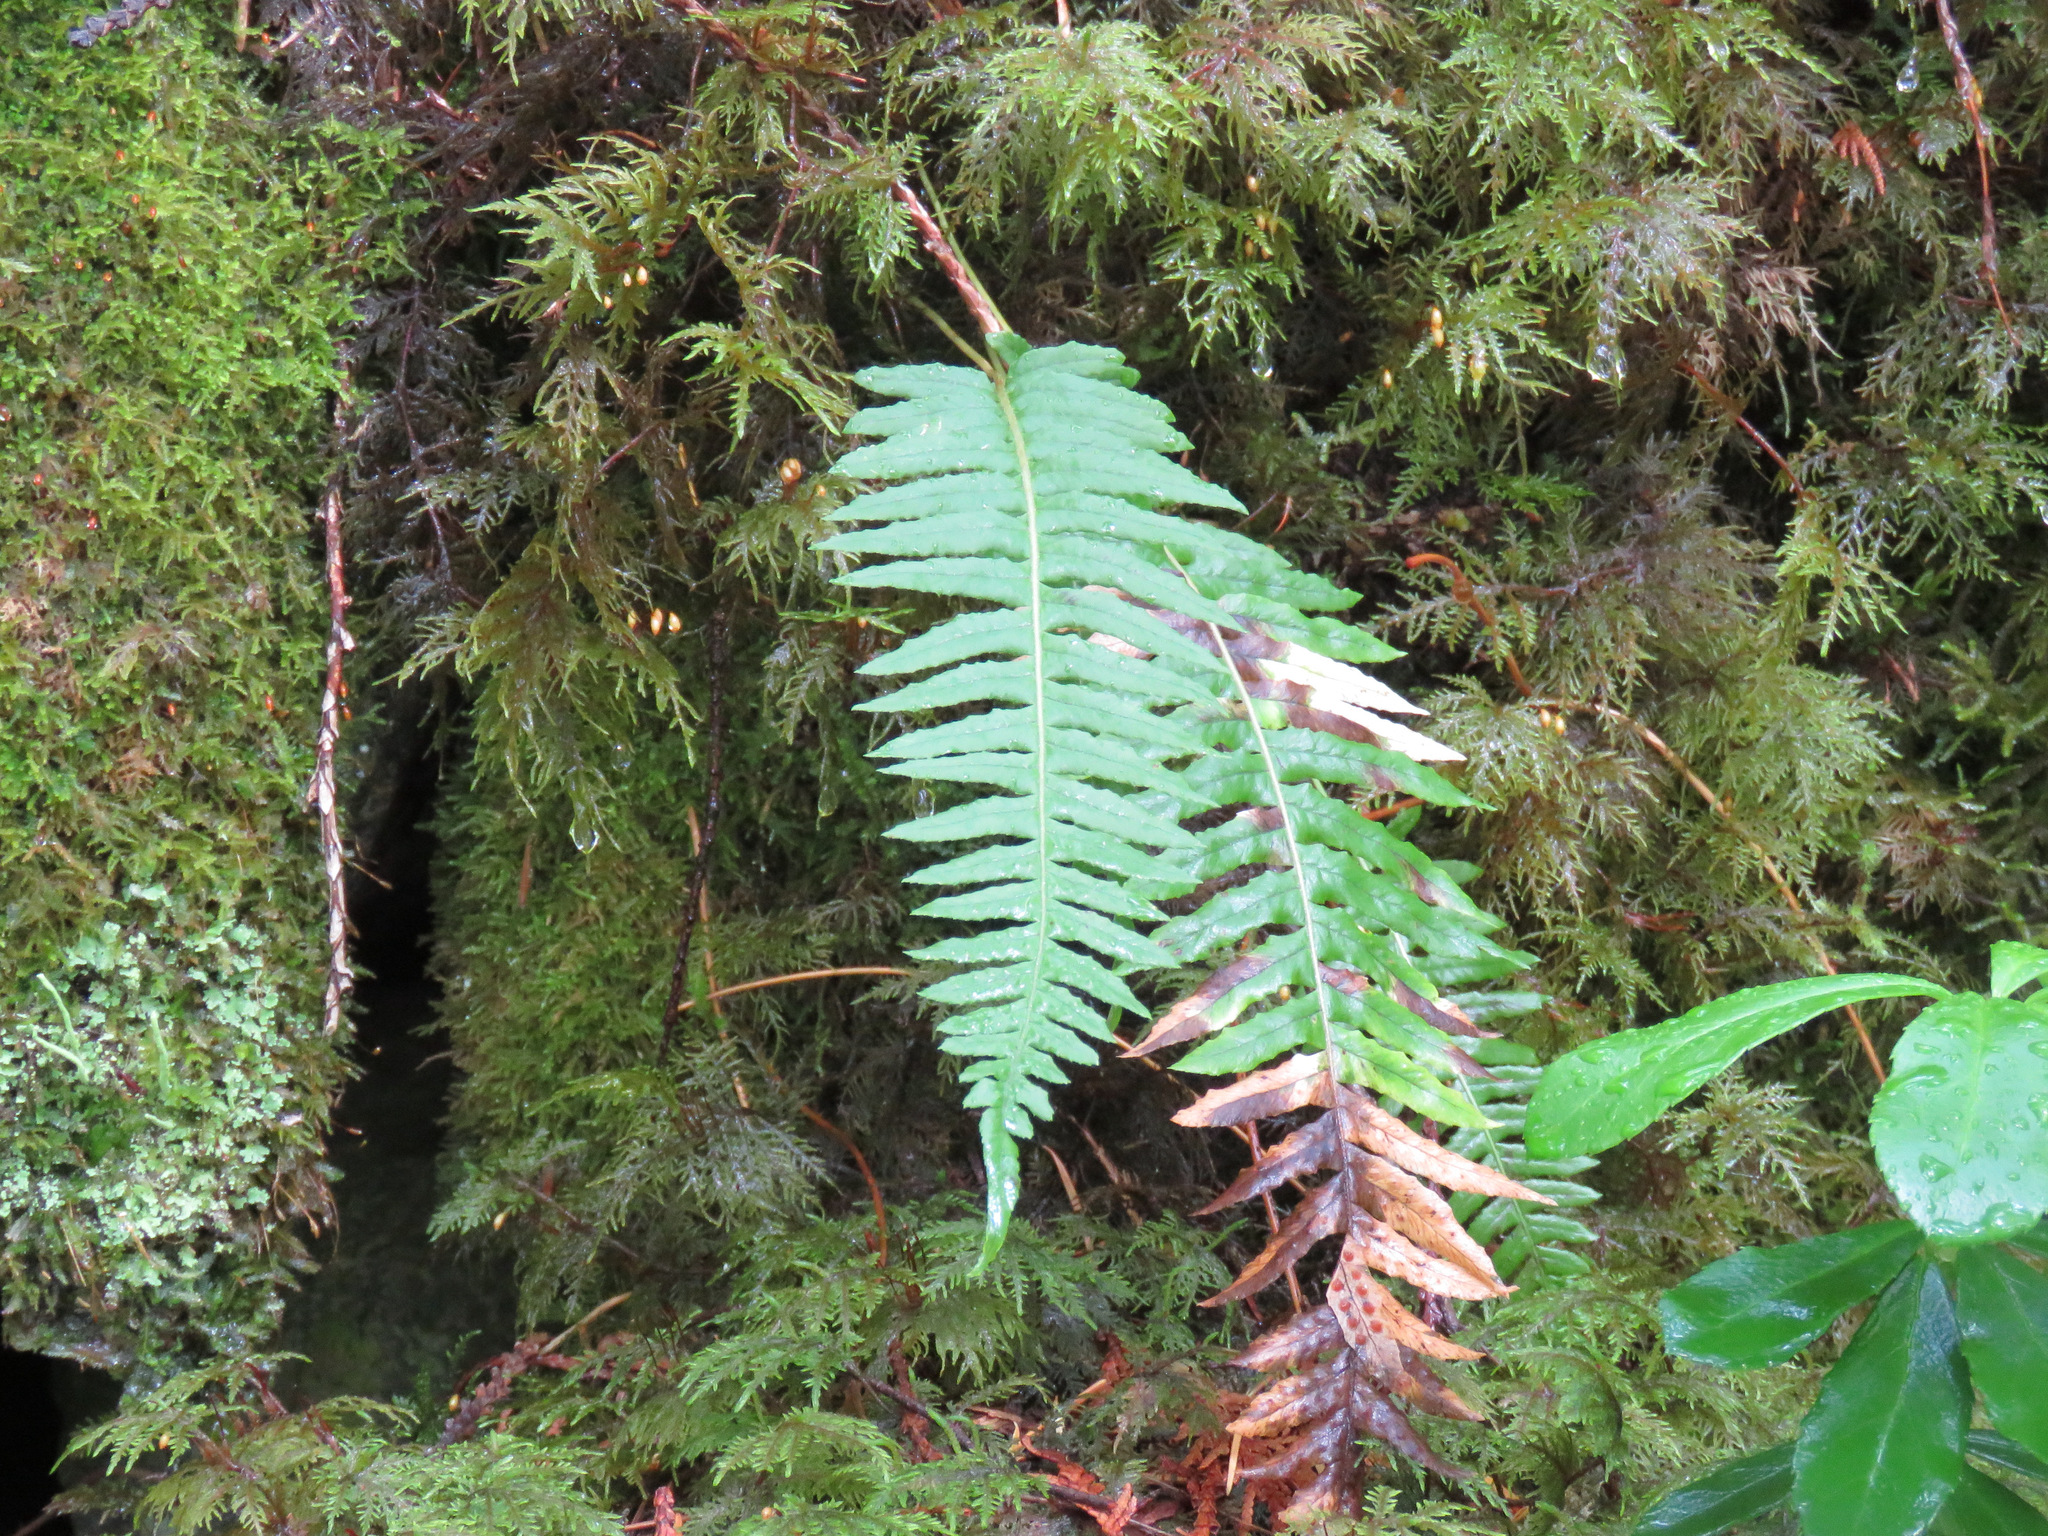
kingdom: Plantae
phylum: Tracheophyta
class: Polypodiopsida
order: Polypodiales
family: Polypodiaceae
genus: Polypodium
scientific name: Polypodium glycyrrhiza
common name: Licorice fern
